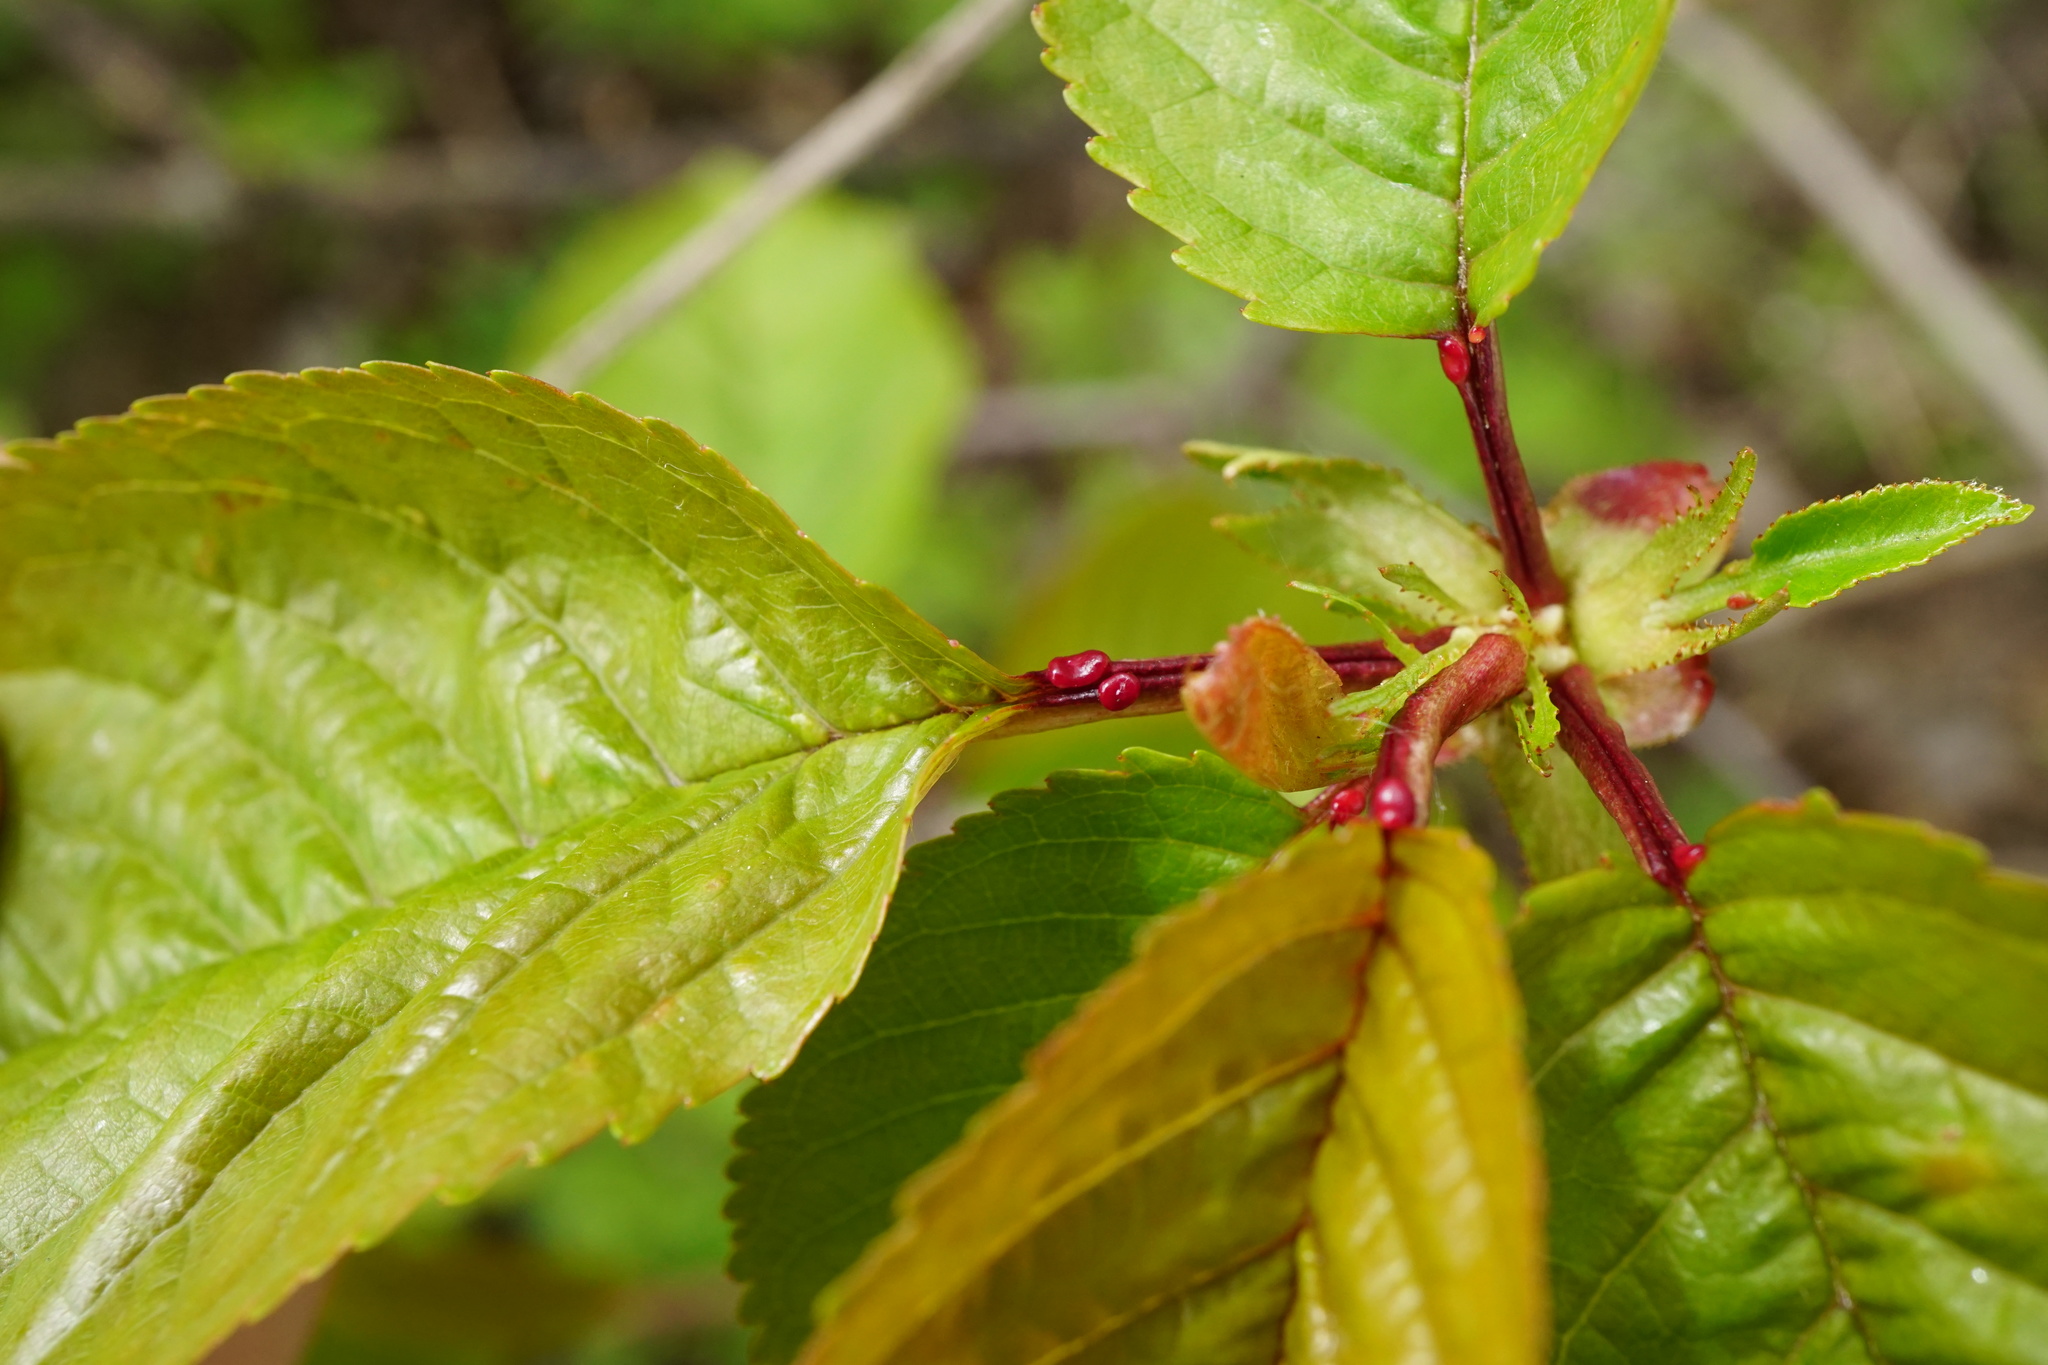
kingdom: Plantae
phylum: Tracheophyta
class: Magnoliopsida
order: Rosales
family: Rosaceae
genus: Prunus
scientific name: Prunus avium
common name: Sweet cherry
